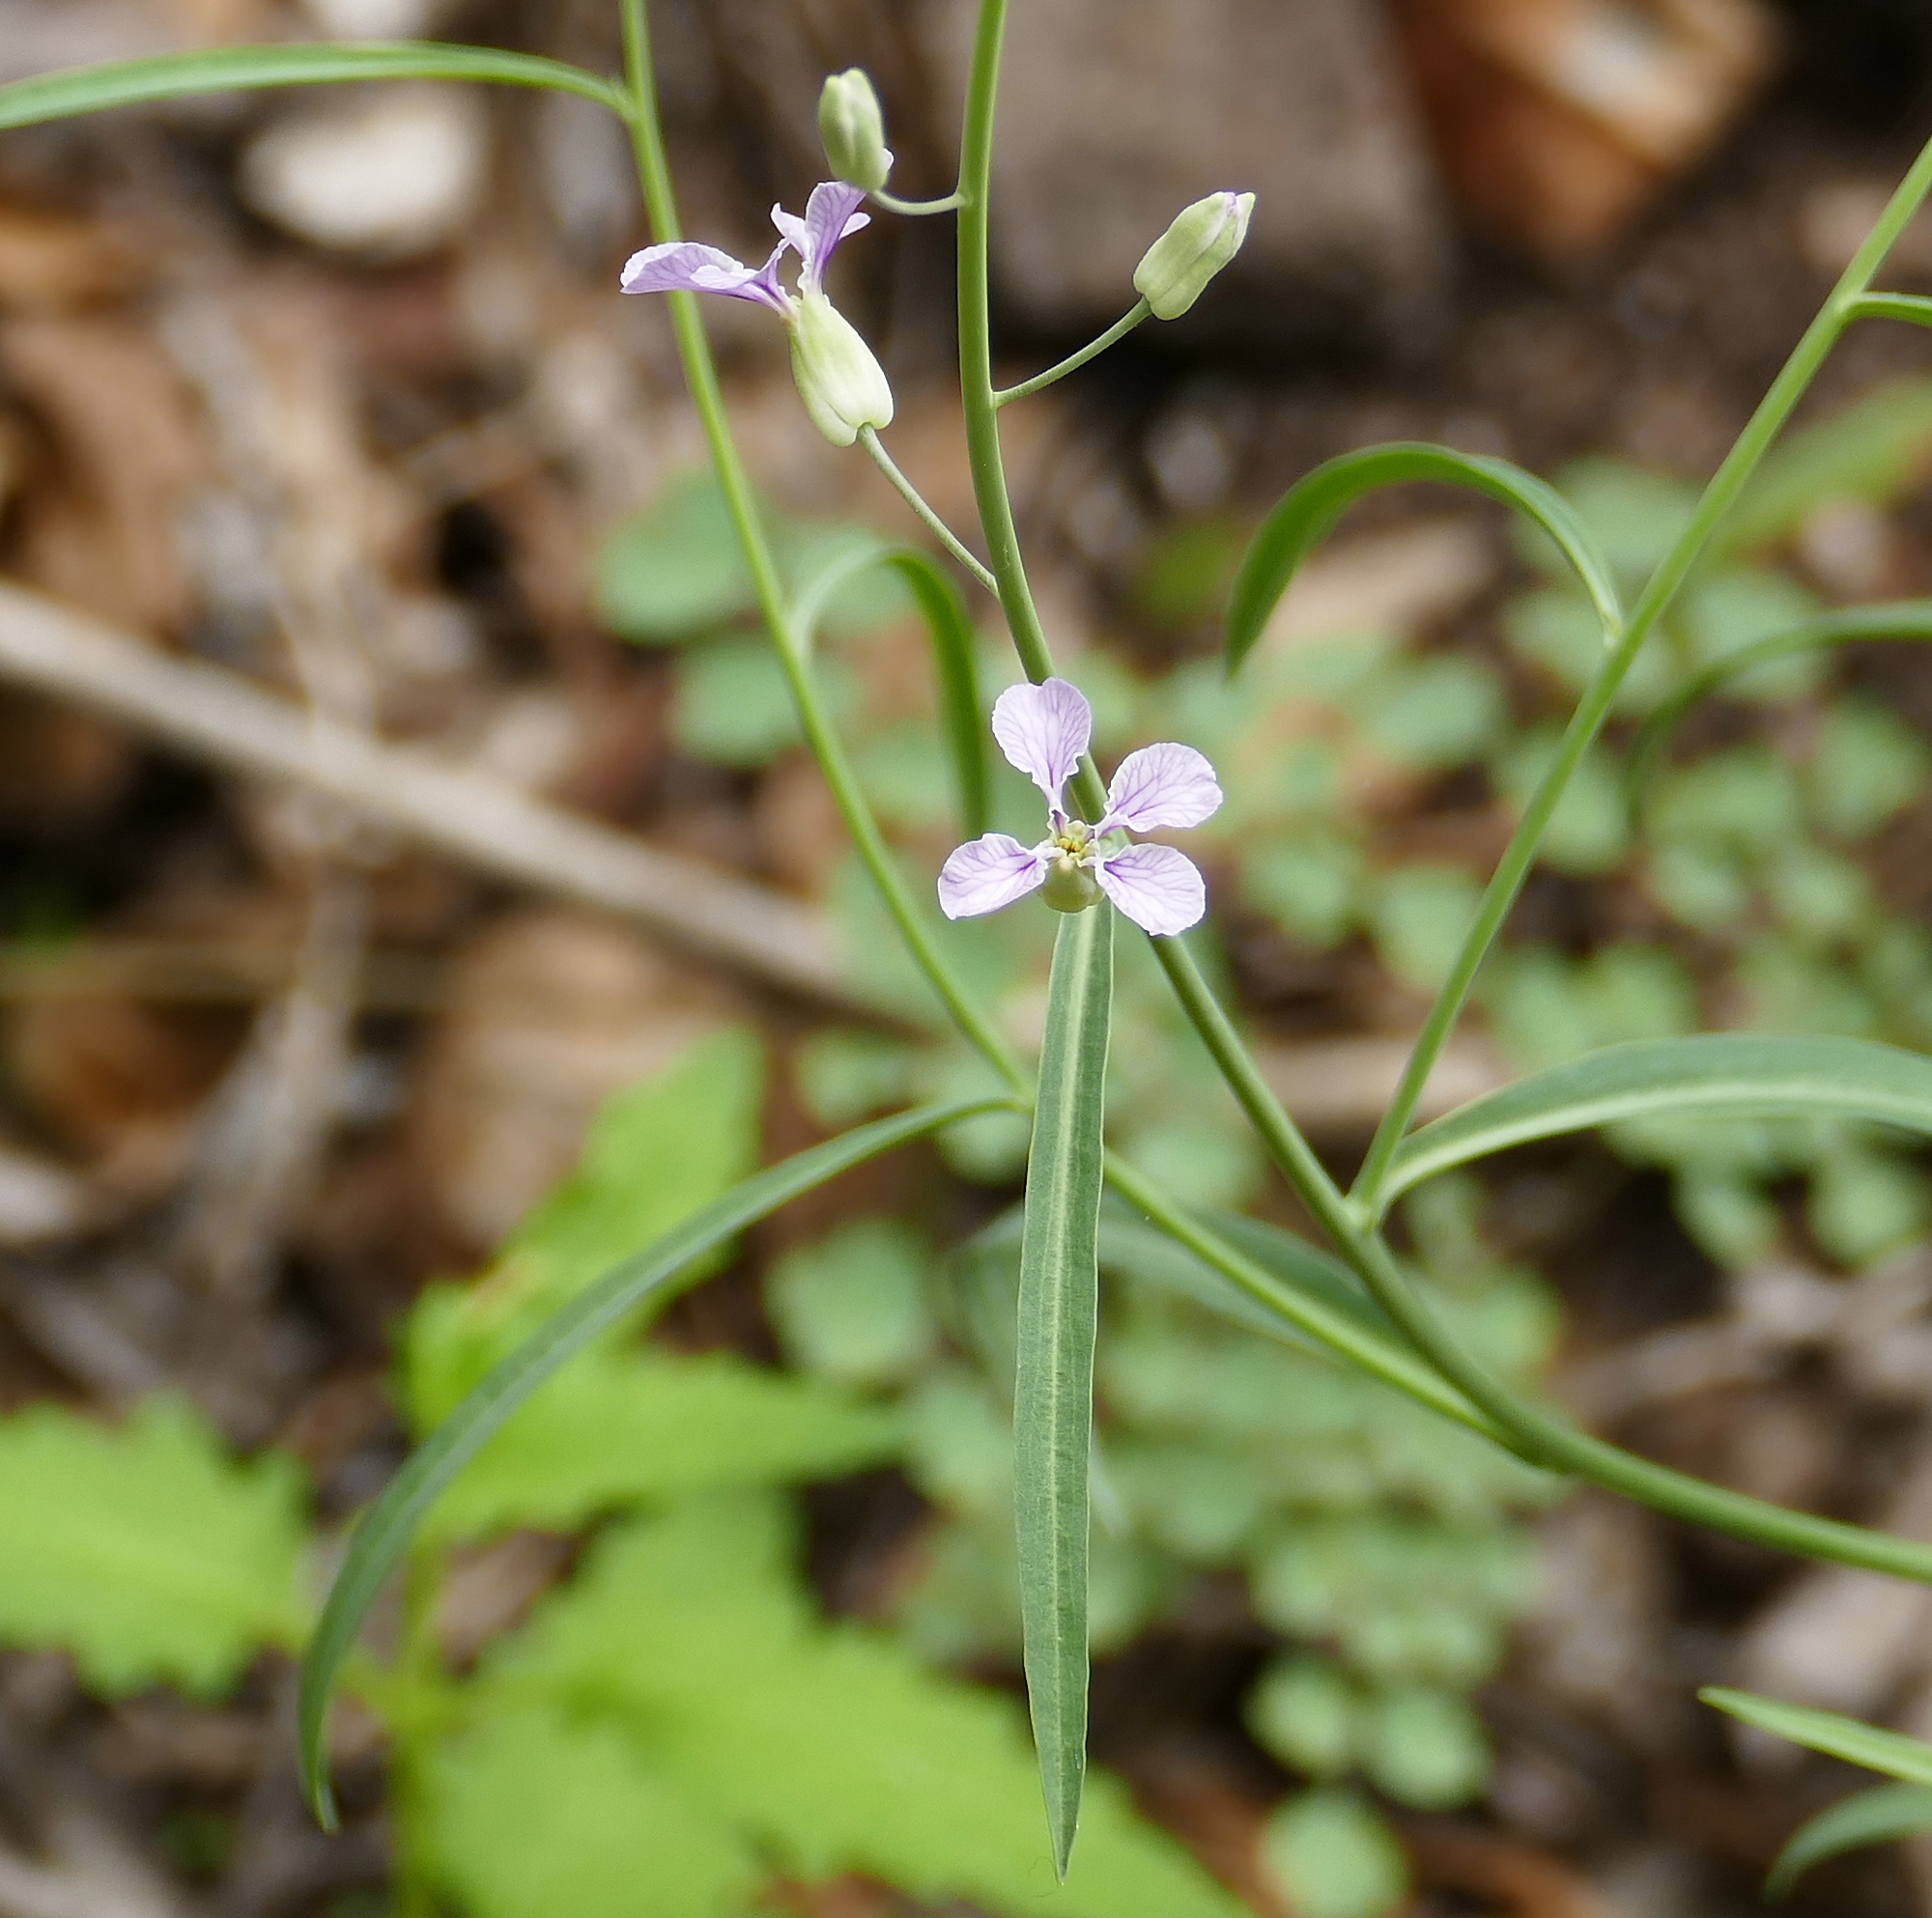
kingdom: Plantae
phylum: Tracheophyta
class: Magnoliopsida
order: Brassicales
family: Brassicaceae
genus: Hesperidanthus
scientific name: Hesperidanthus linearifolius
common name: Slim-leaf plains mustard
